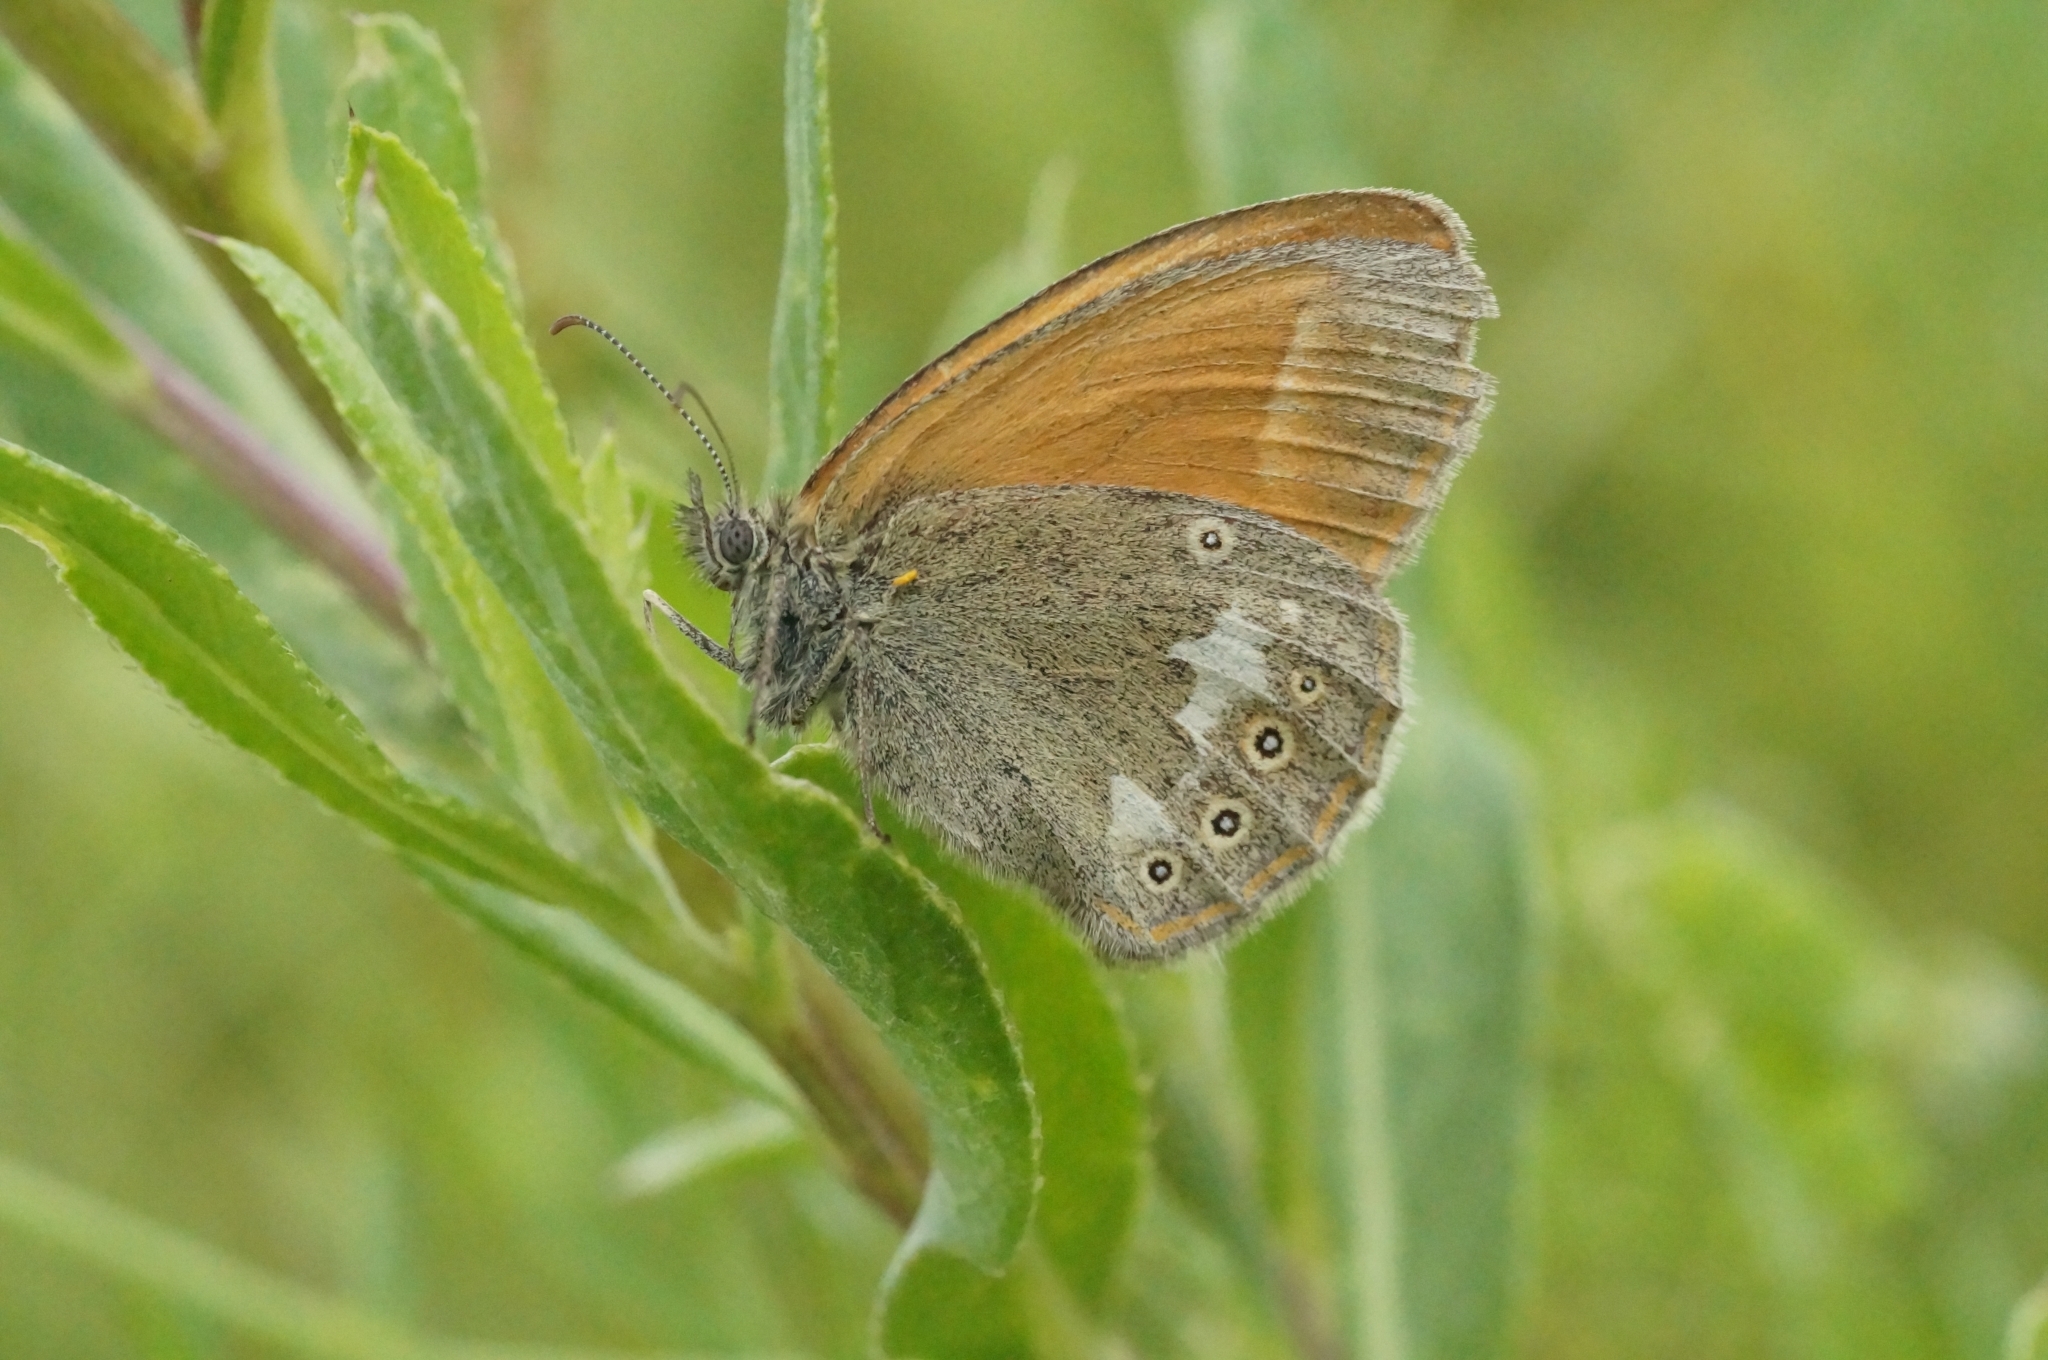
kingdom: Animalia
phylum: Arthropoda
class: Insecta
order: Lepidoptera
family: Nymphalidae
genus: Coenonympha
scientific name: Coenonympha iphis
